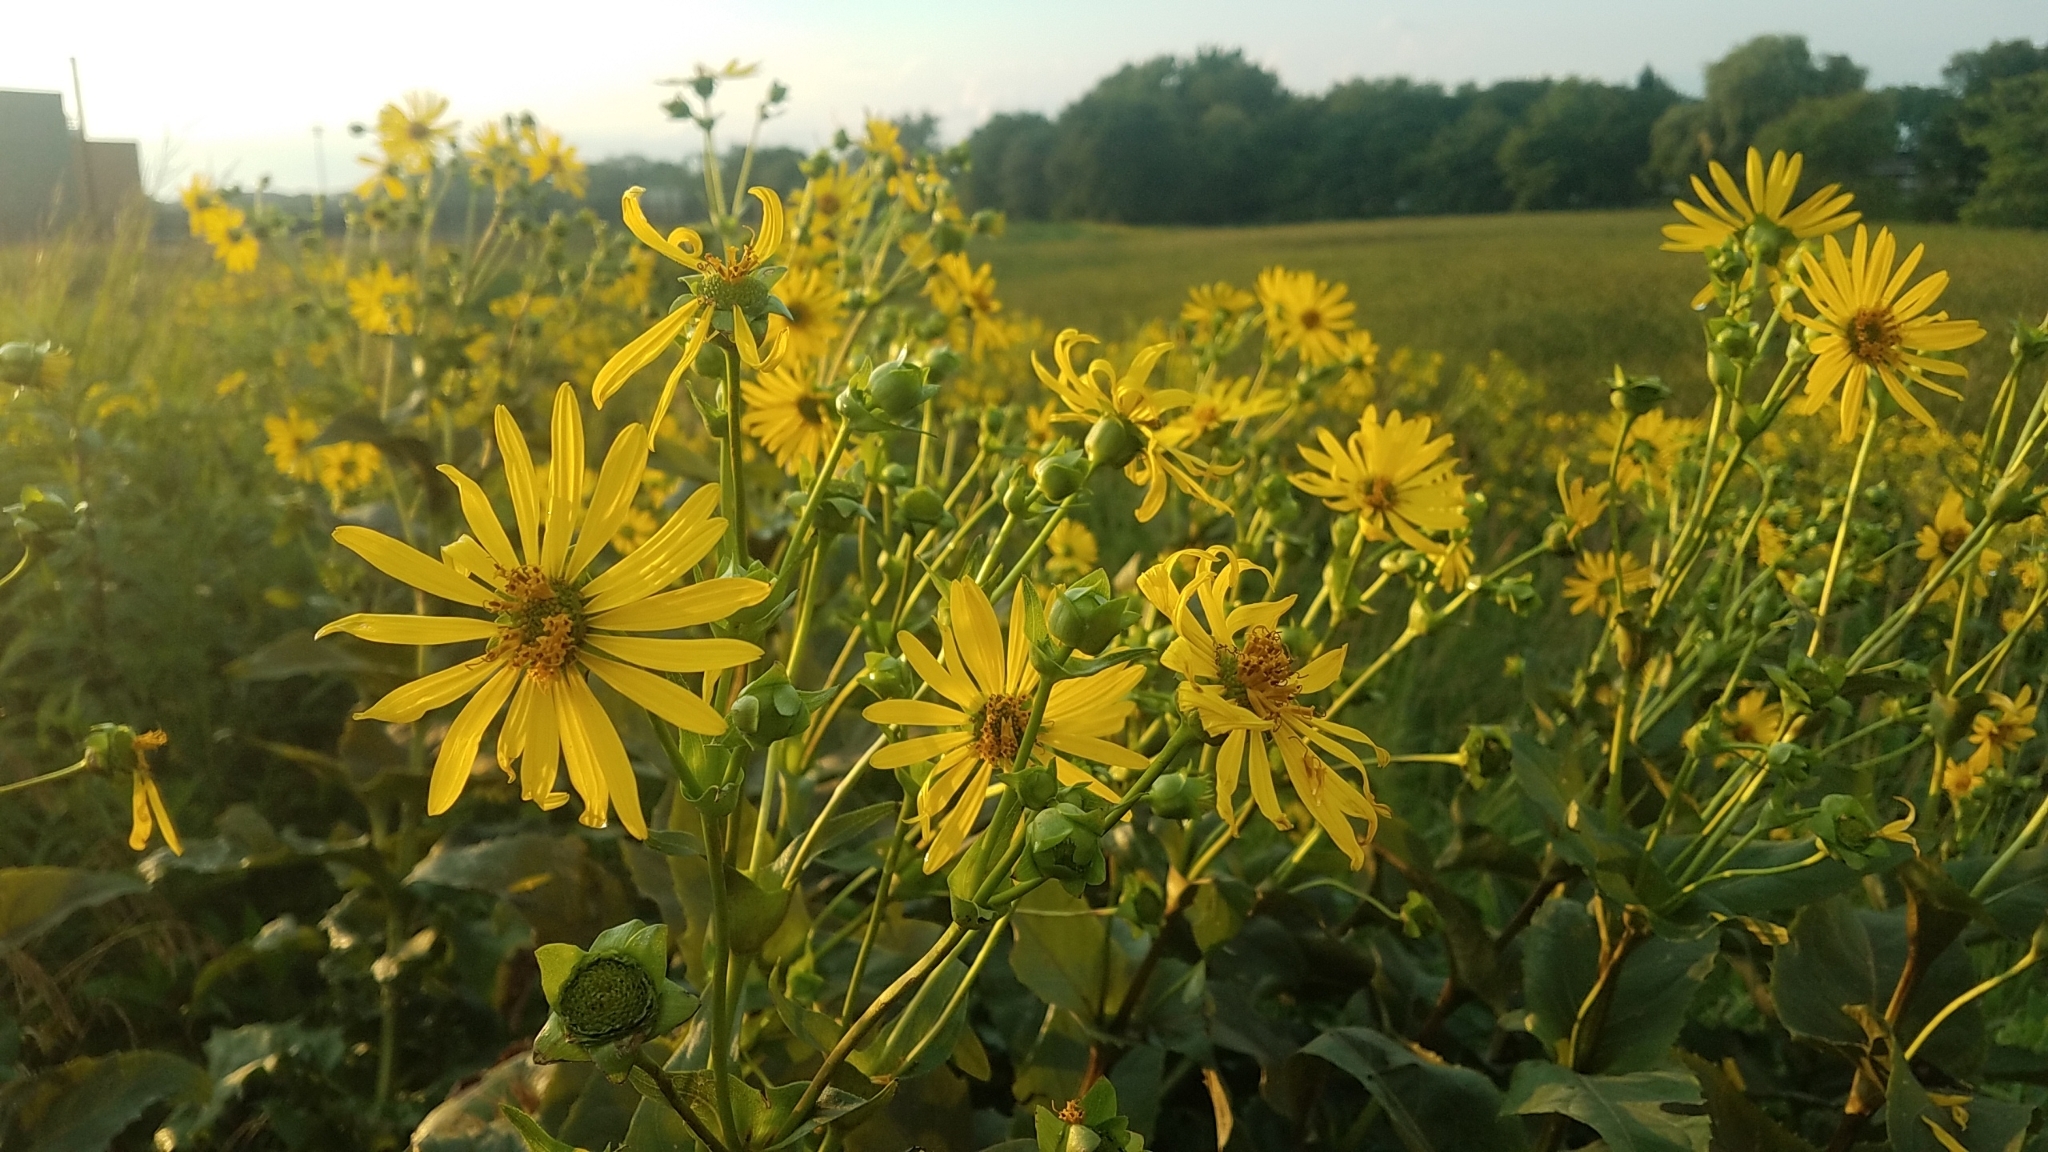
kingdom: Plantae
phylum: Tracheophyta
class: Magnoliopsida
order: Asterales
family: Asteraceae
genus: Silphium
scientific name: Silphium perfoliatum
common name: Cup-plant
